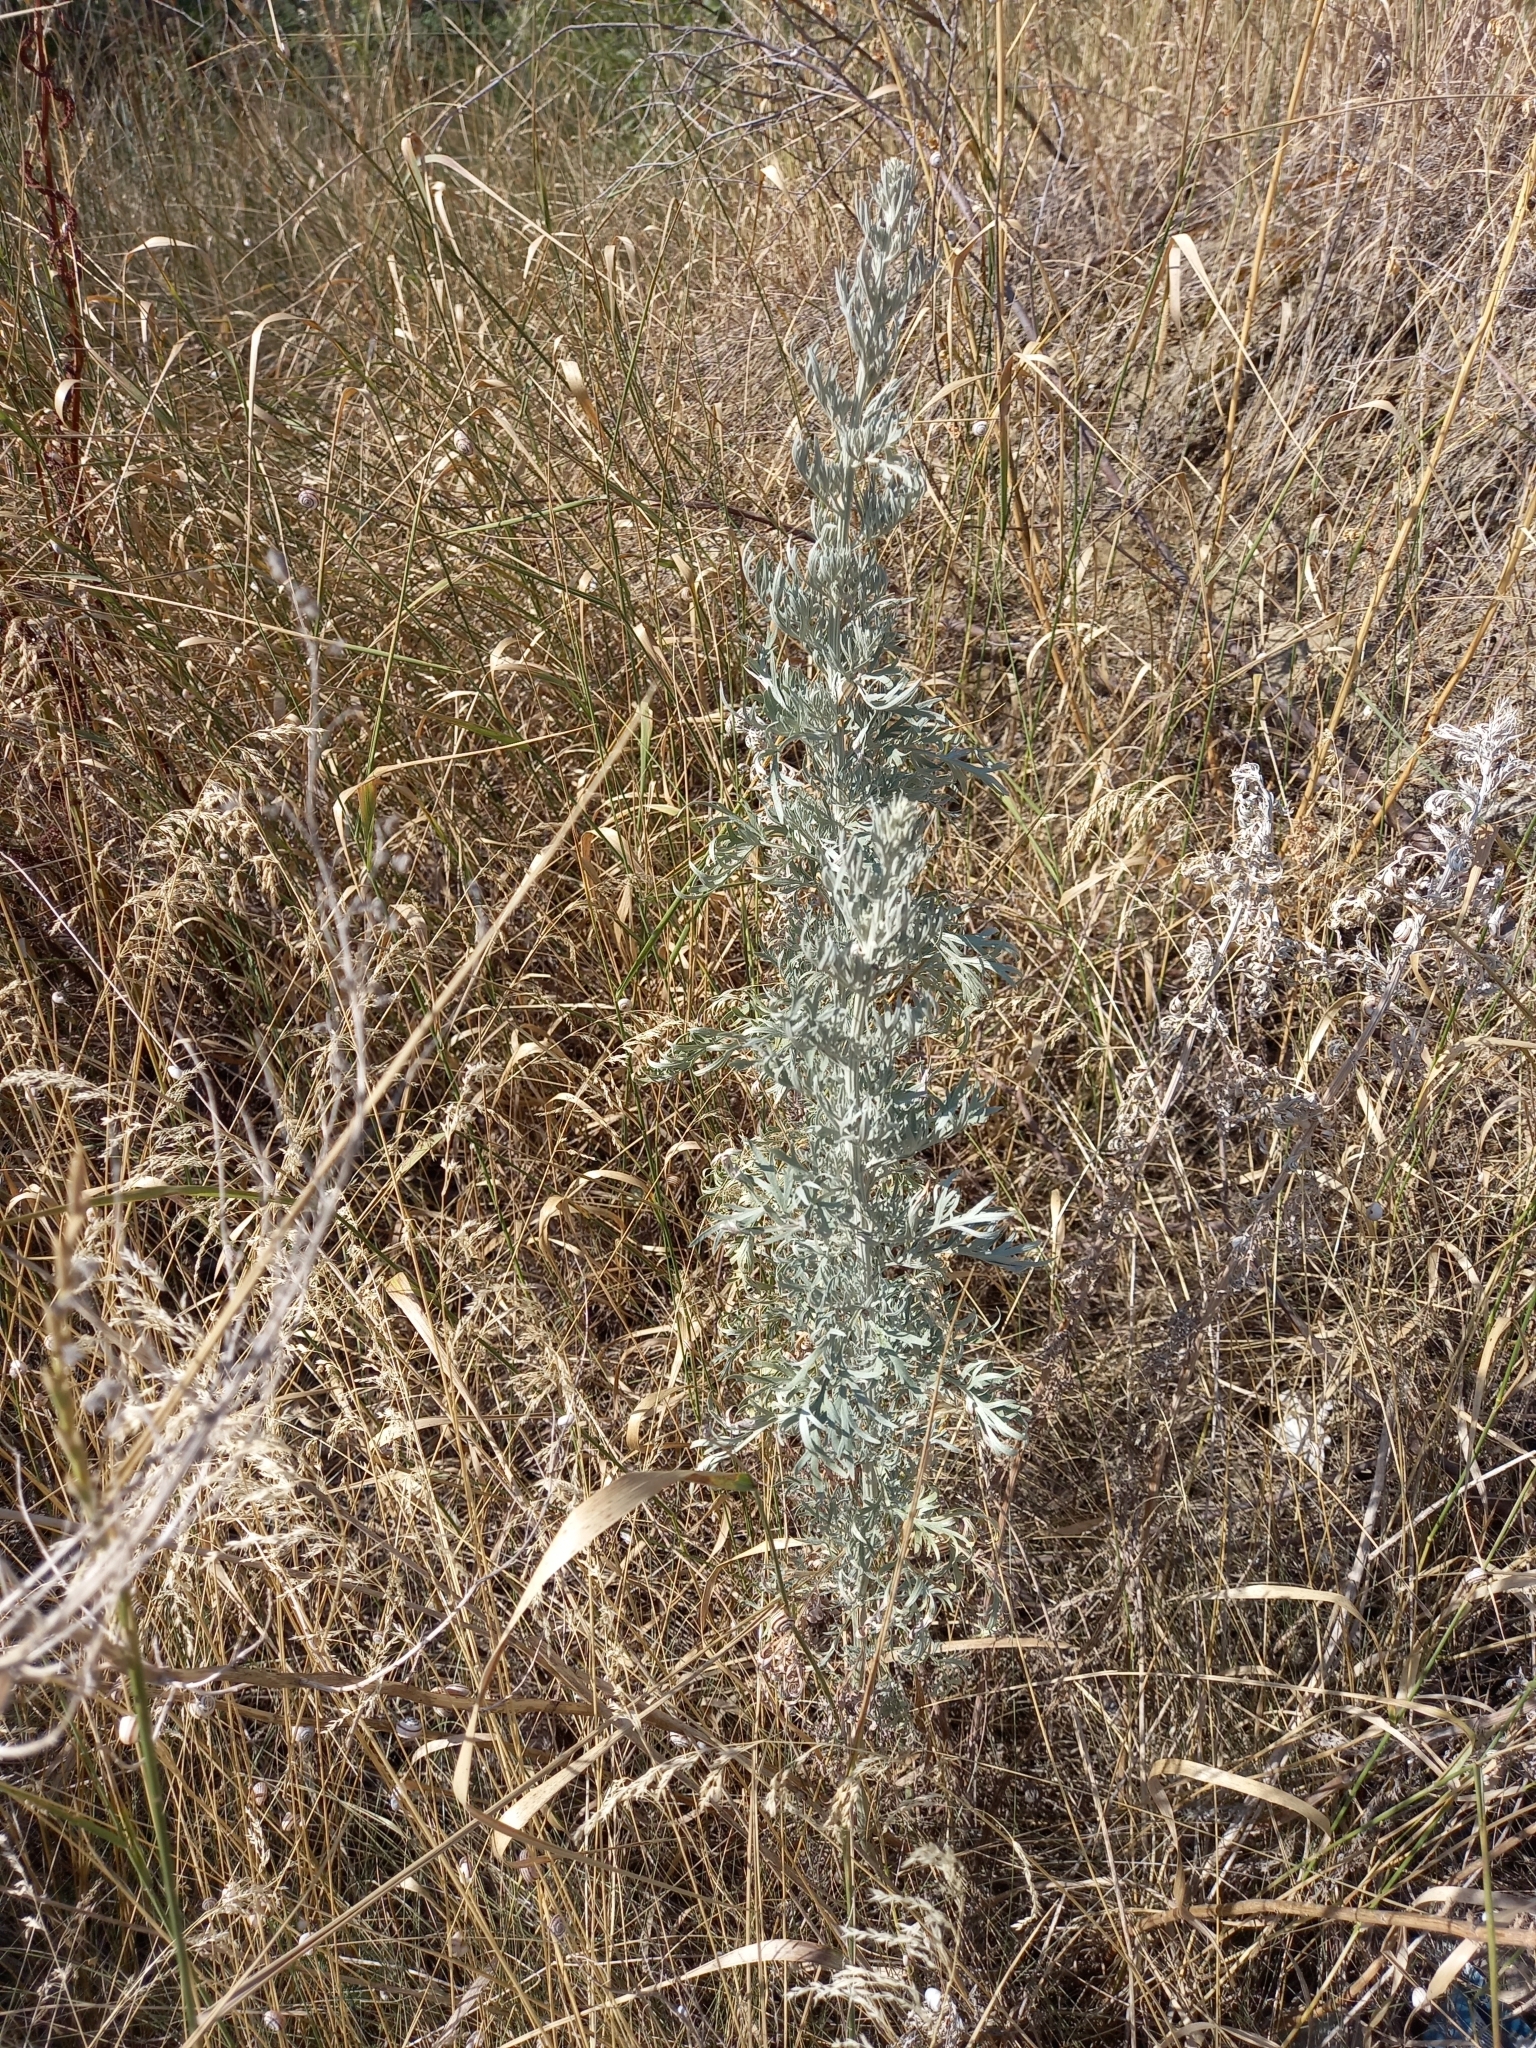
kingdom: Plantae
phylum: Tracheophyta
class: Magnoliopsida
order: Asterales
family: Asteraceae
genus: Artemisia
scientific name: Artemisia absinthium
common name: Wormwood
